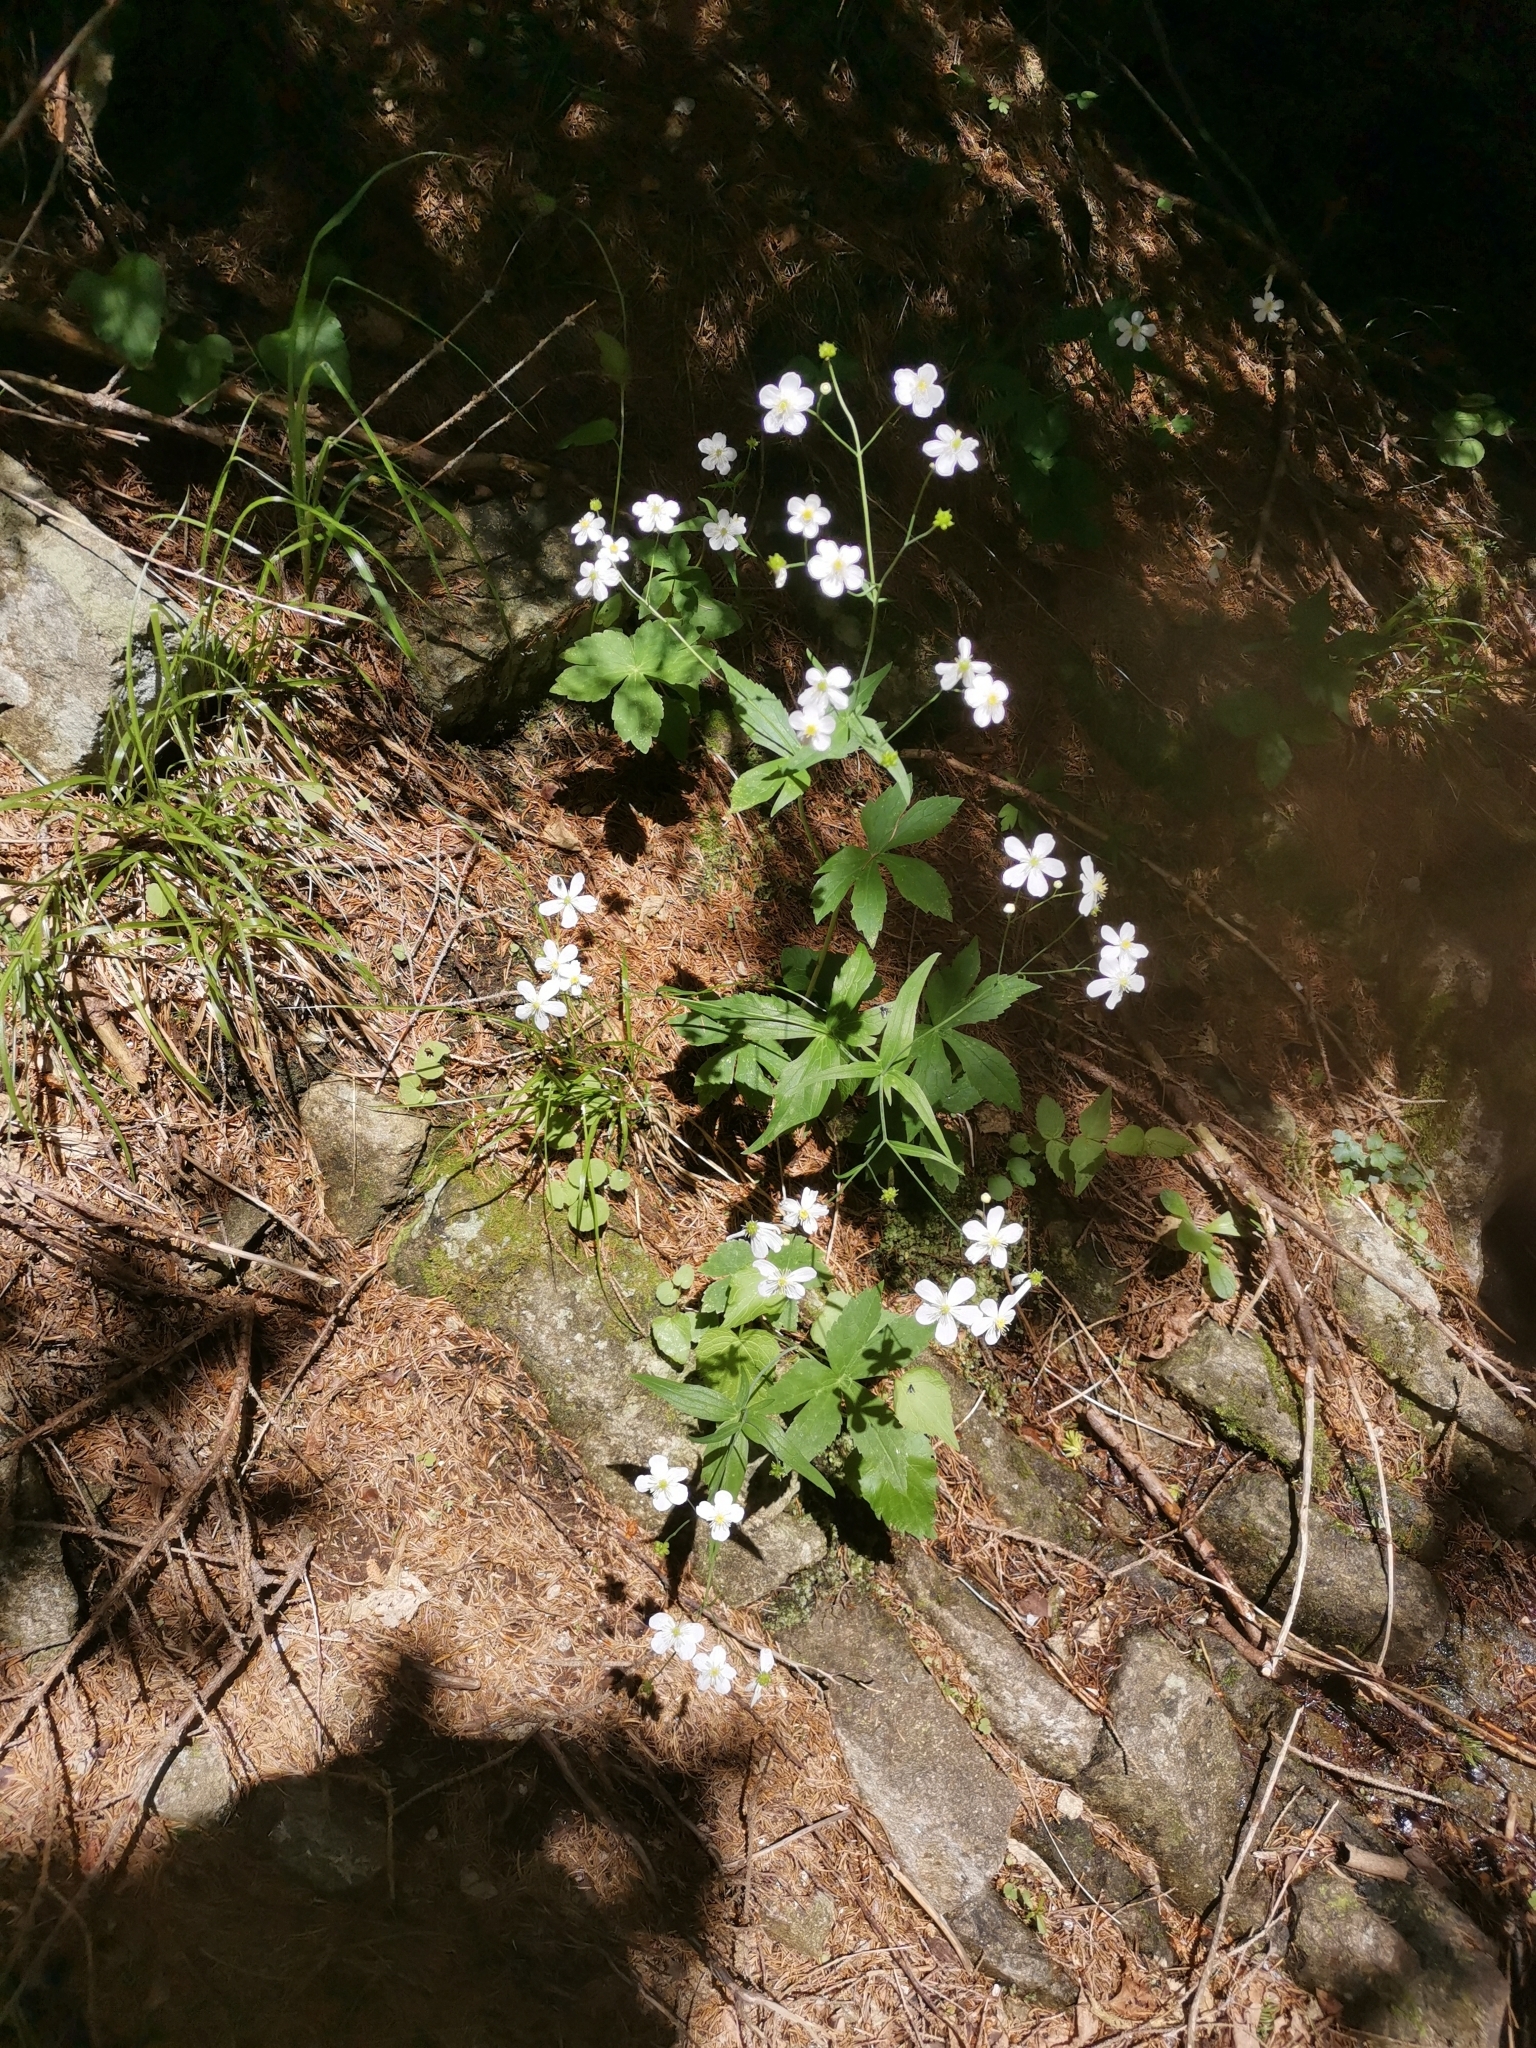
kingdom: Plantae
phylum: Tracheophyta
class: Magnoliopsida
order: Ranunculales
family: Ranunculaceae
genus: Ranunculus
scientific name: Ranunculus platanifolius
